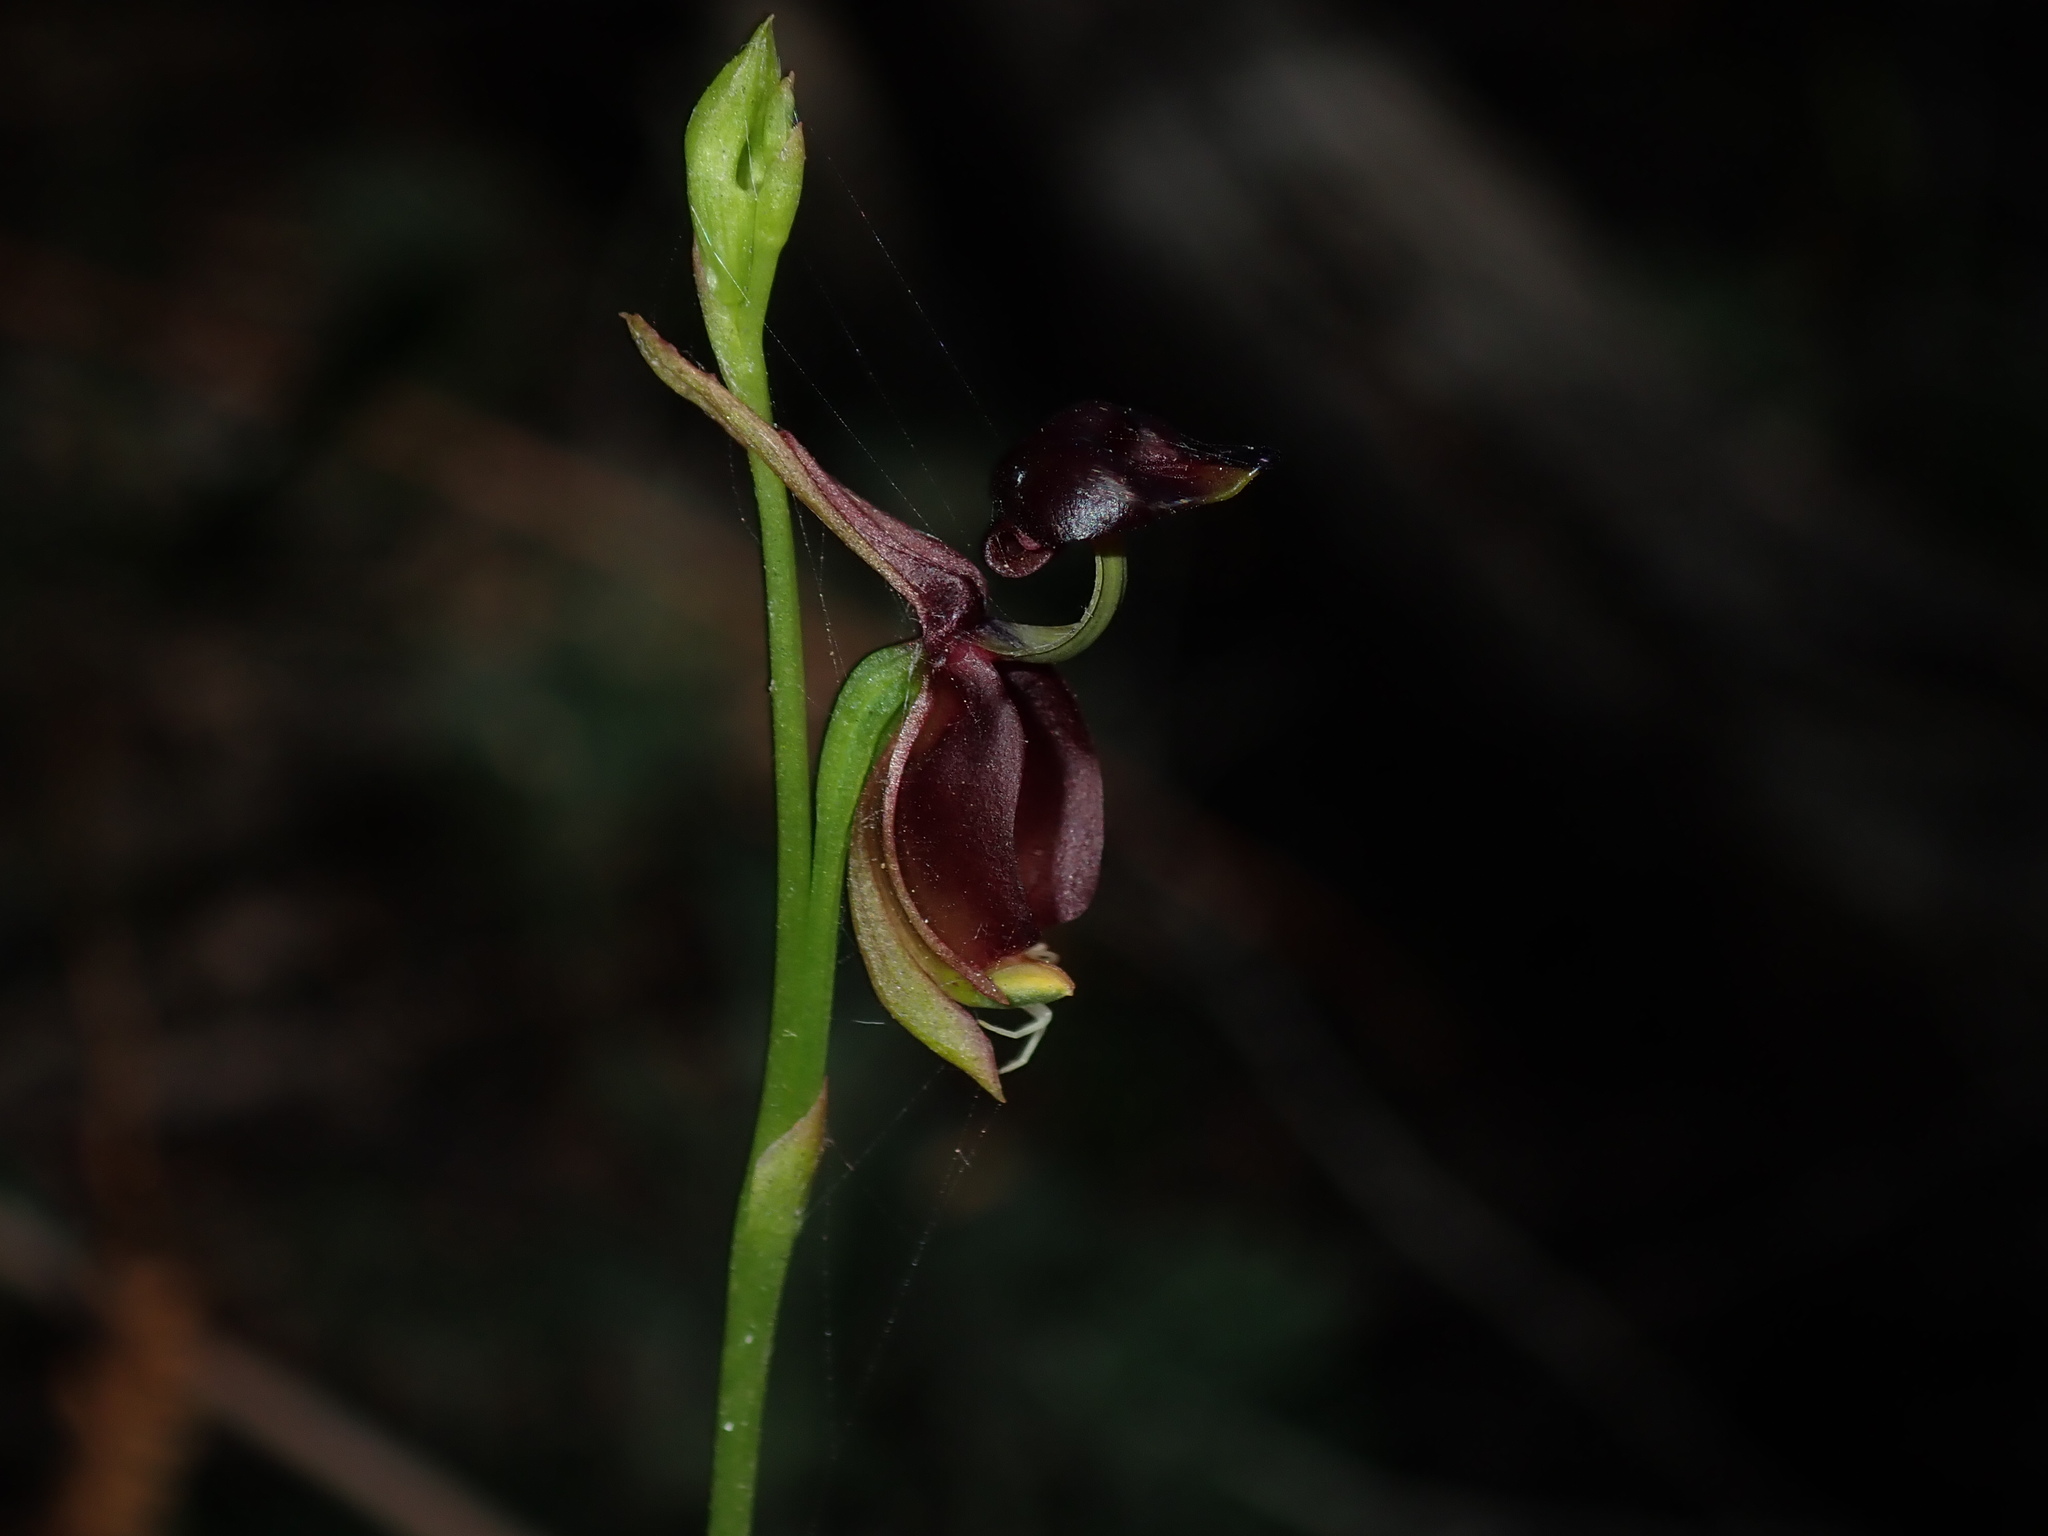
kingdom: Plantae
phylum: Tracheophyta
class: Liliopsida
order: Asparagales
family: Orchidaceae
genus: Caleana
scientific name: Caleana major
